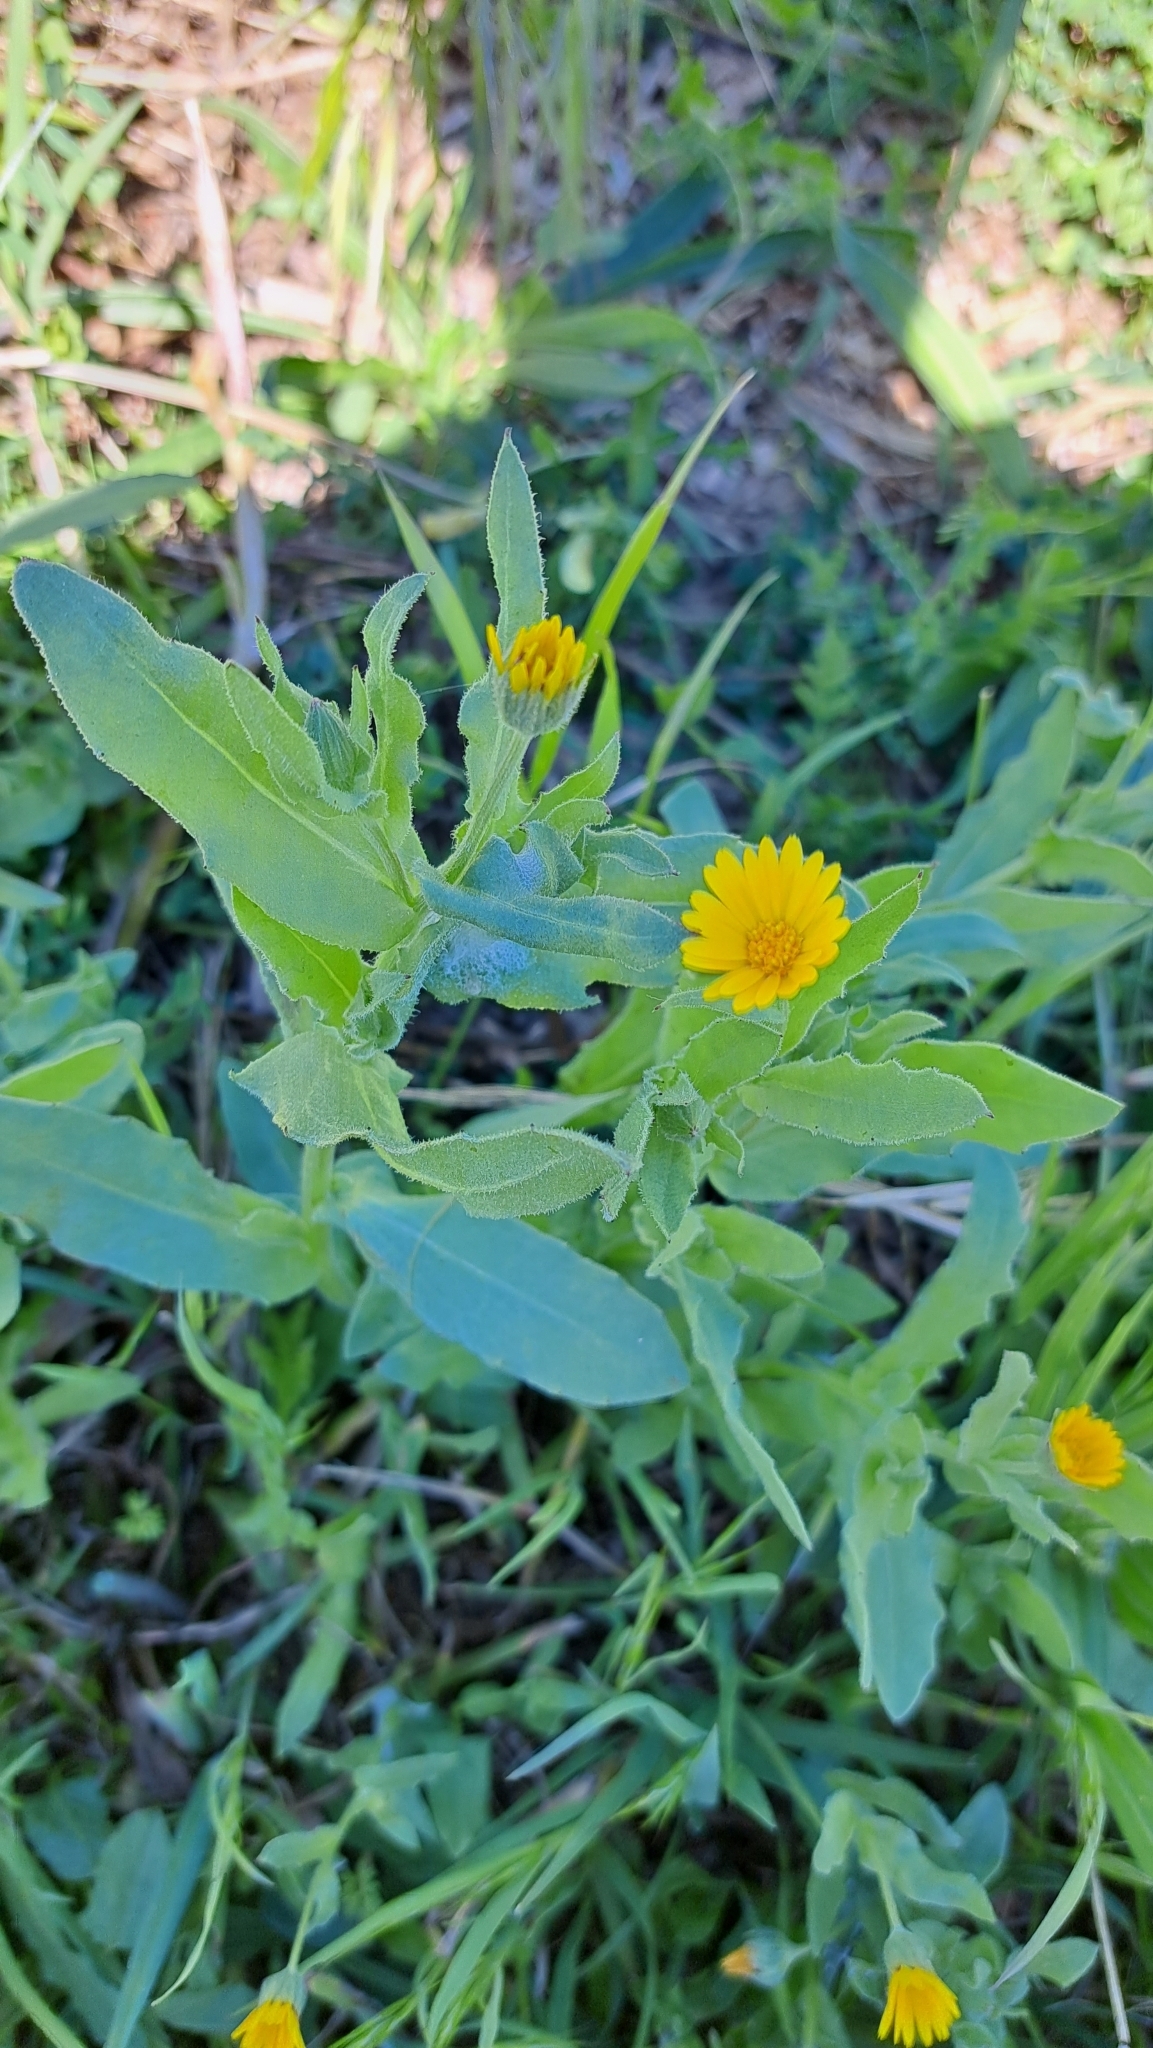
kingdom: Plantae
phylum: Tracheophyta
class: Magnoliopsida
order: Asterales
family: Asteraceae
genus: Calendula
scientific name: Calendula arvensis
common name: Field marigold
